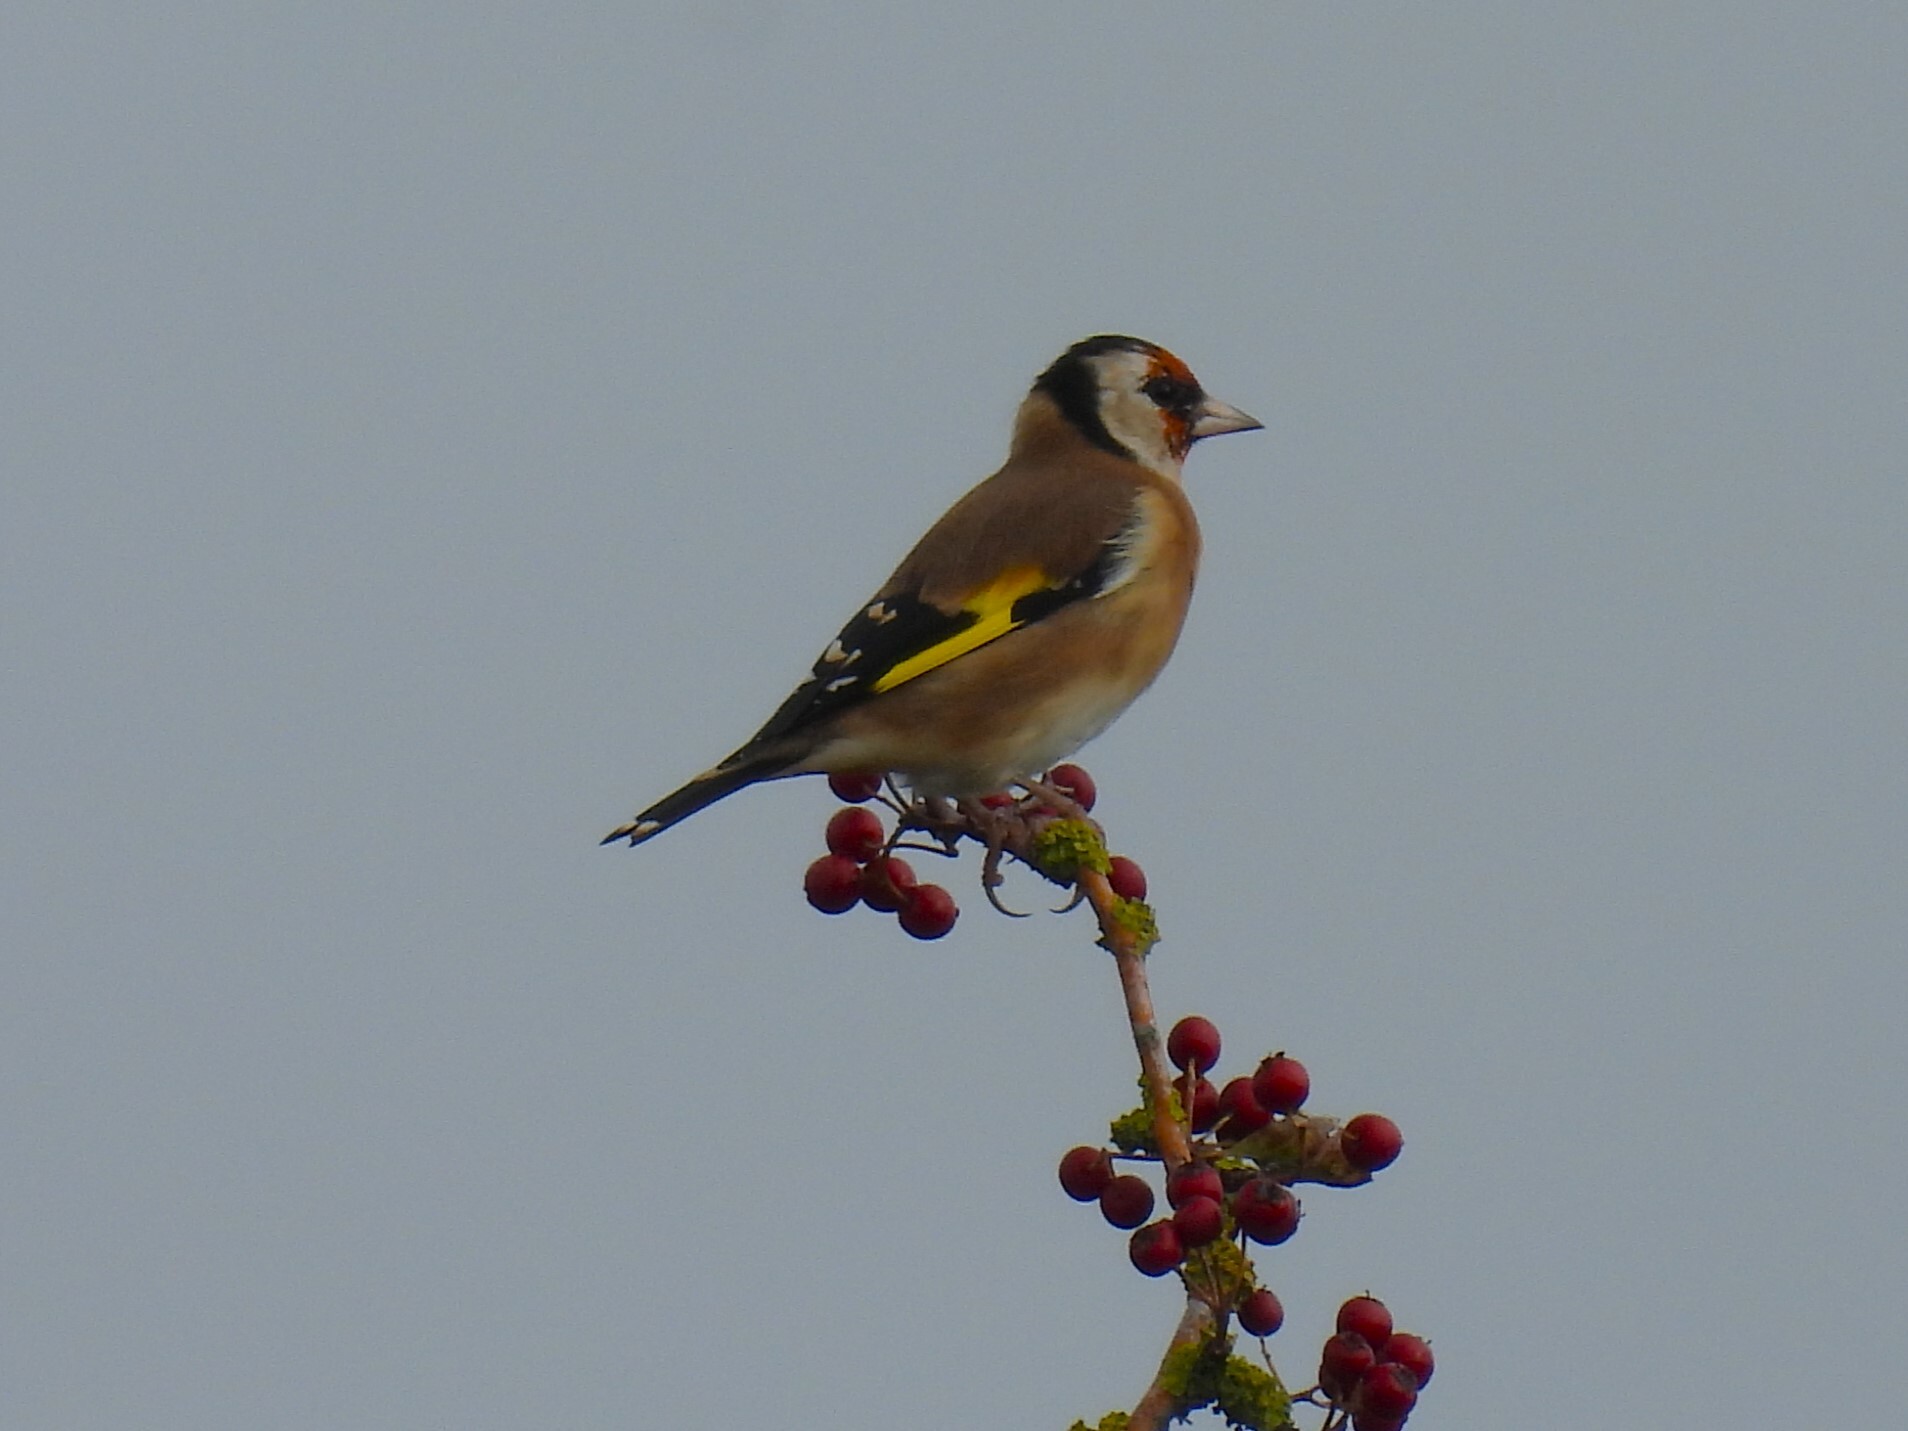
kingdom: Animalia
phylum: Chordata
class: Aves
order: Passeriformes
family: Fringillidae
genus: Carduelis
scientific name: Carduelis carduelis
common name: European goldfinch
